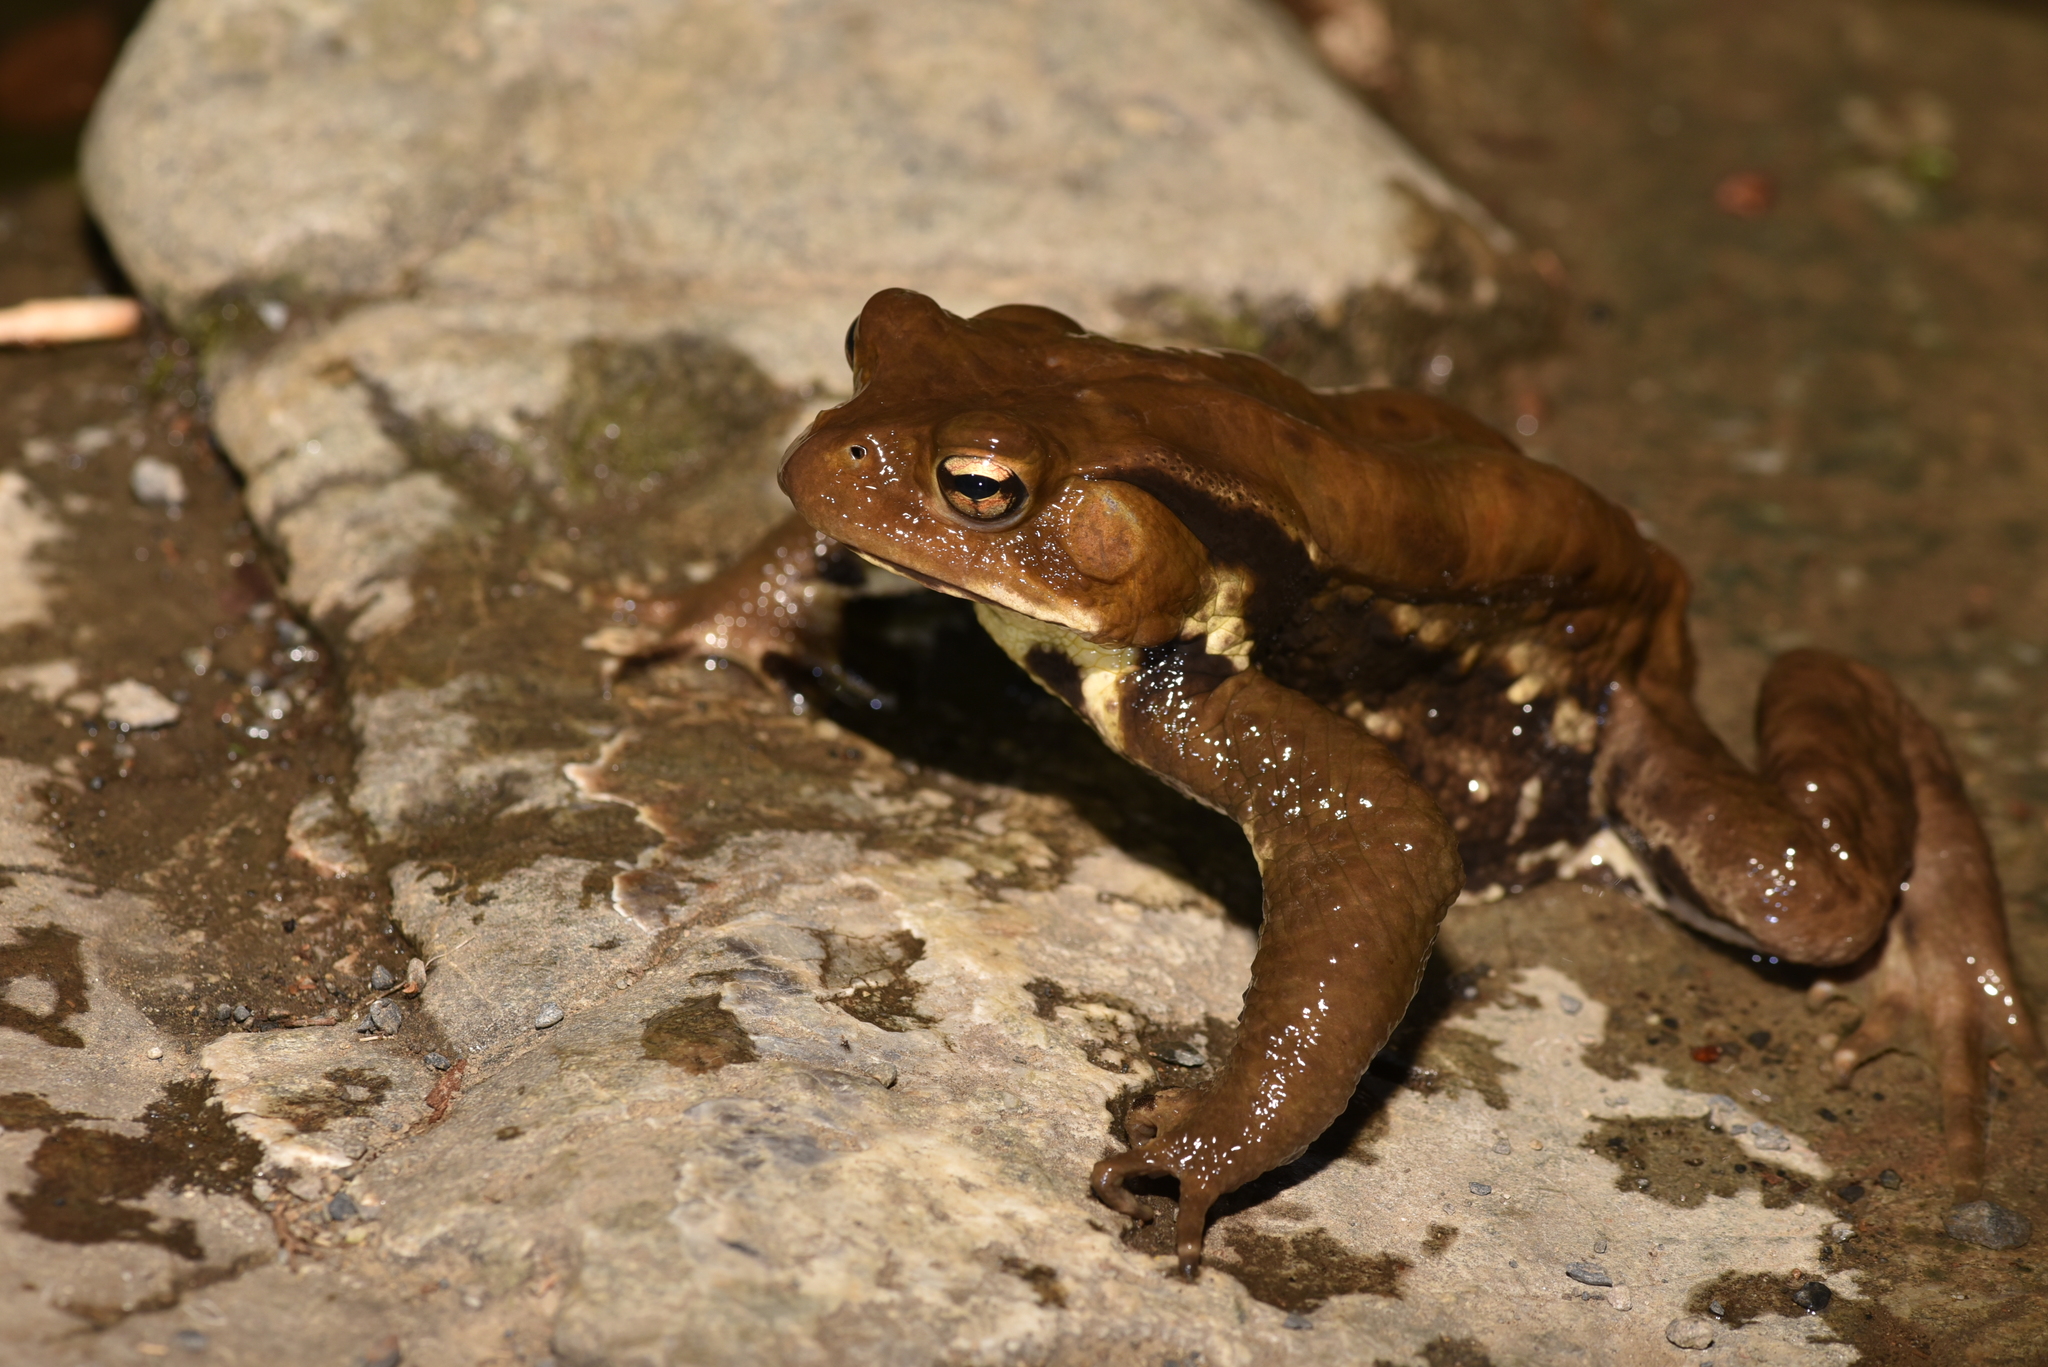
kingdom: Animalia
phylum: Chordata
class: Amphibia
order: Anura
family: Bufonidae
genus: Bufo
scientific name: Bufo japonicus
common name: Japanese common toad
